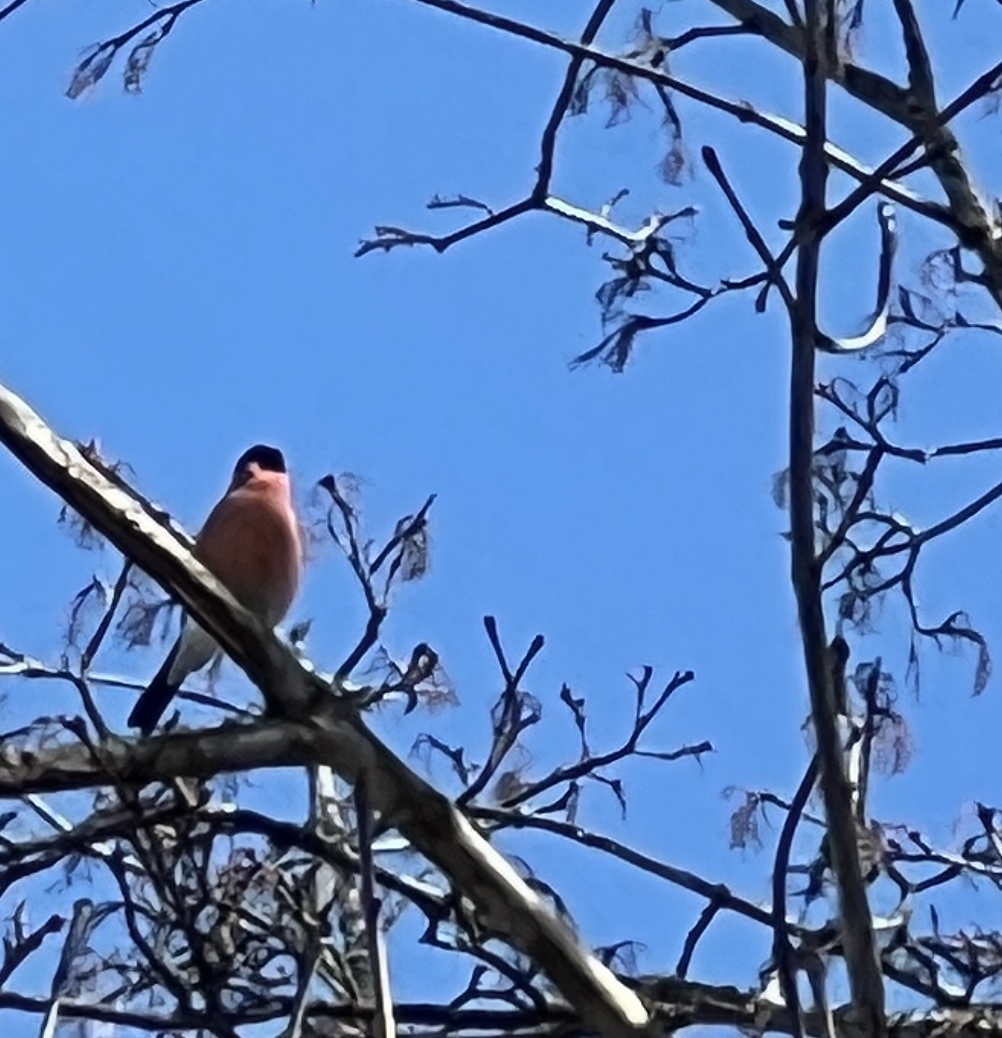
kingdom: Animalia
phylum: Chordata
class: Aves
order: Passeriformes
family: Fringillidae
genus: Pyrrhula
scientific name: Pyrrhula pyrrhula
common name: Eurasian bullfinch
